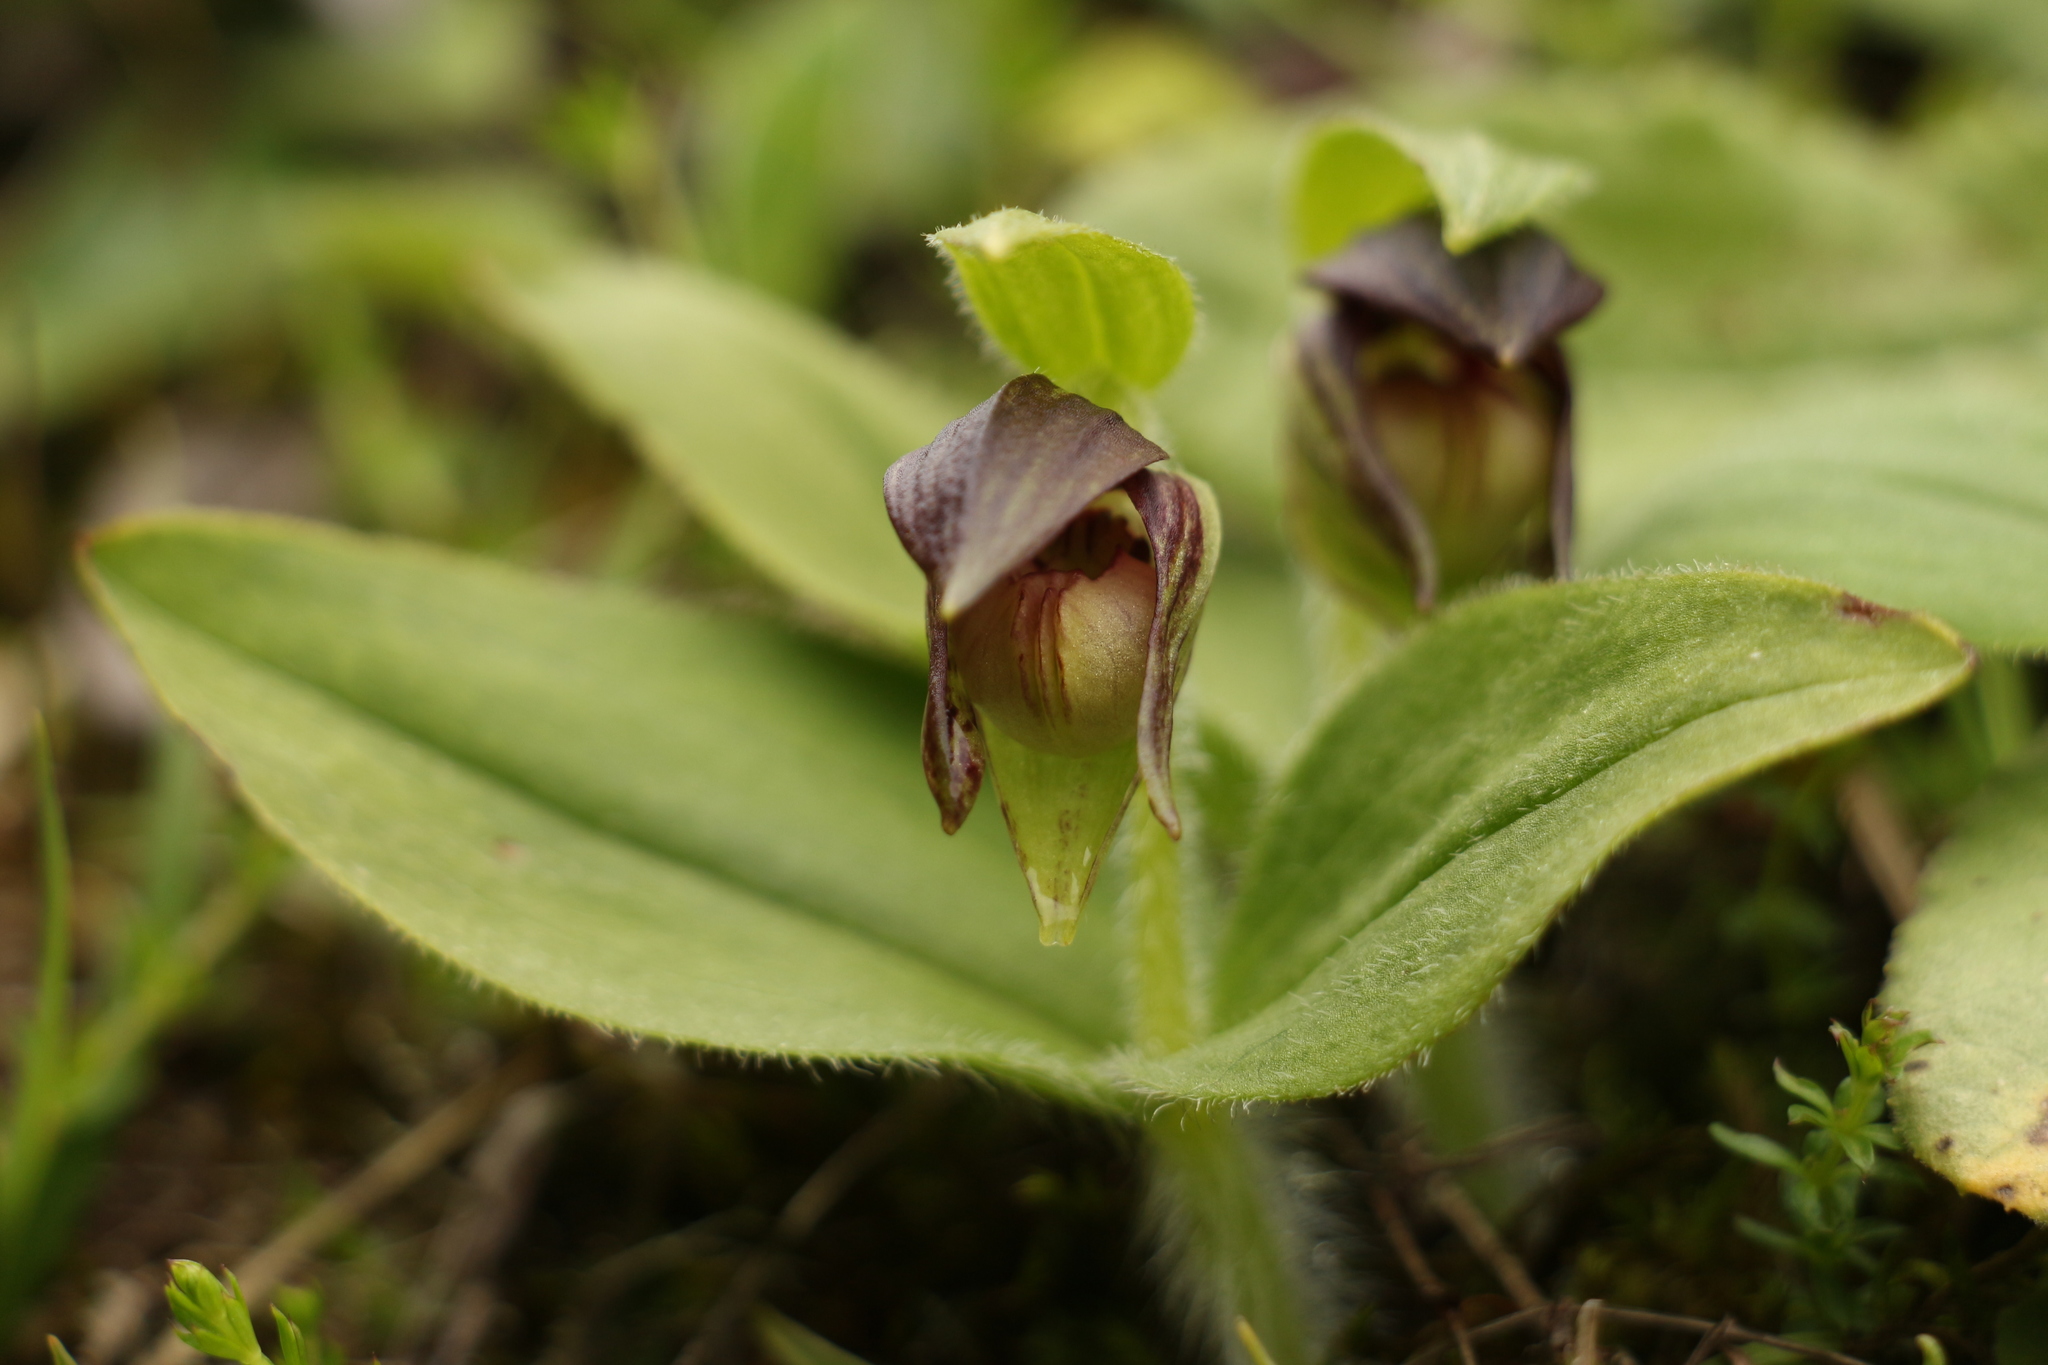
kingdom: Plantae
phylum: Tracheophyta
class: Liliopsida
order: Asparagales
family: Orchidaceae
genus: Cypripedium
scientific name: Cypripedium elegans
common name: Elegant cypripedium
